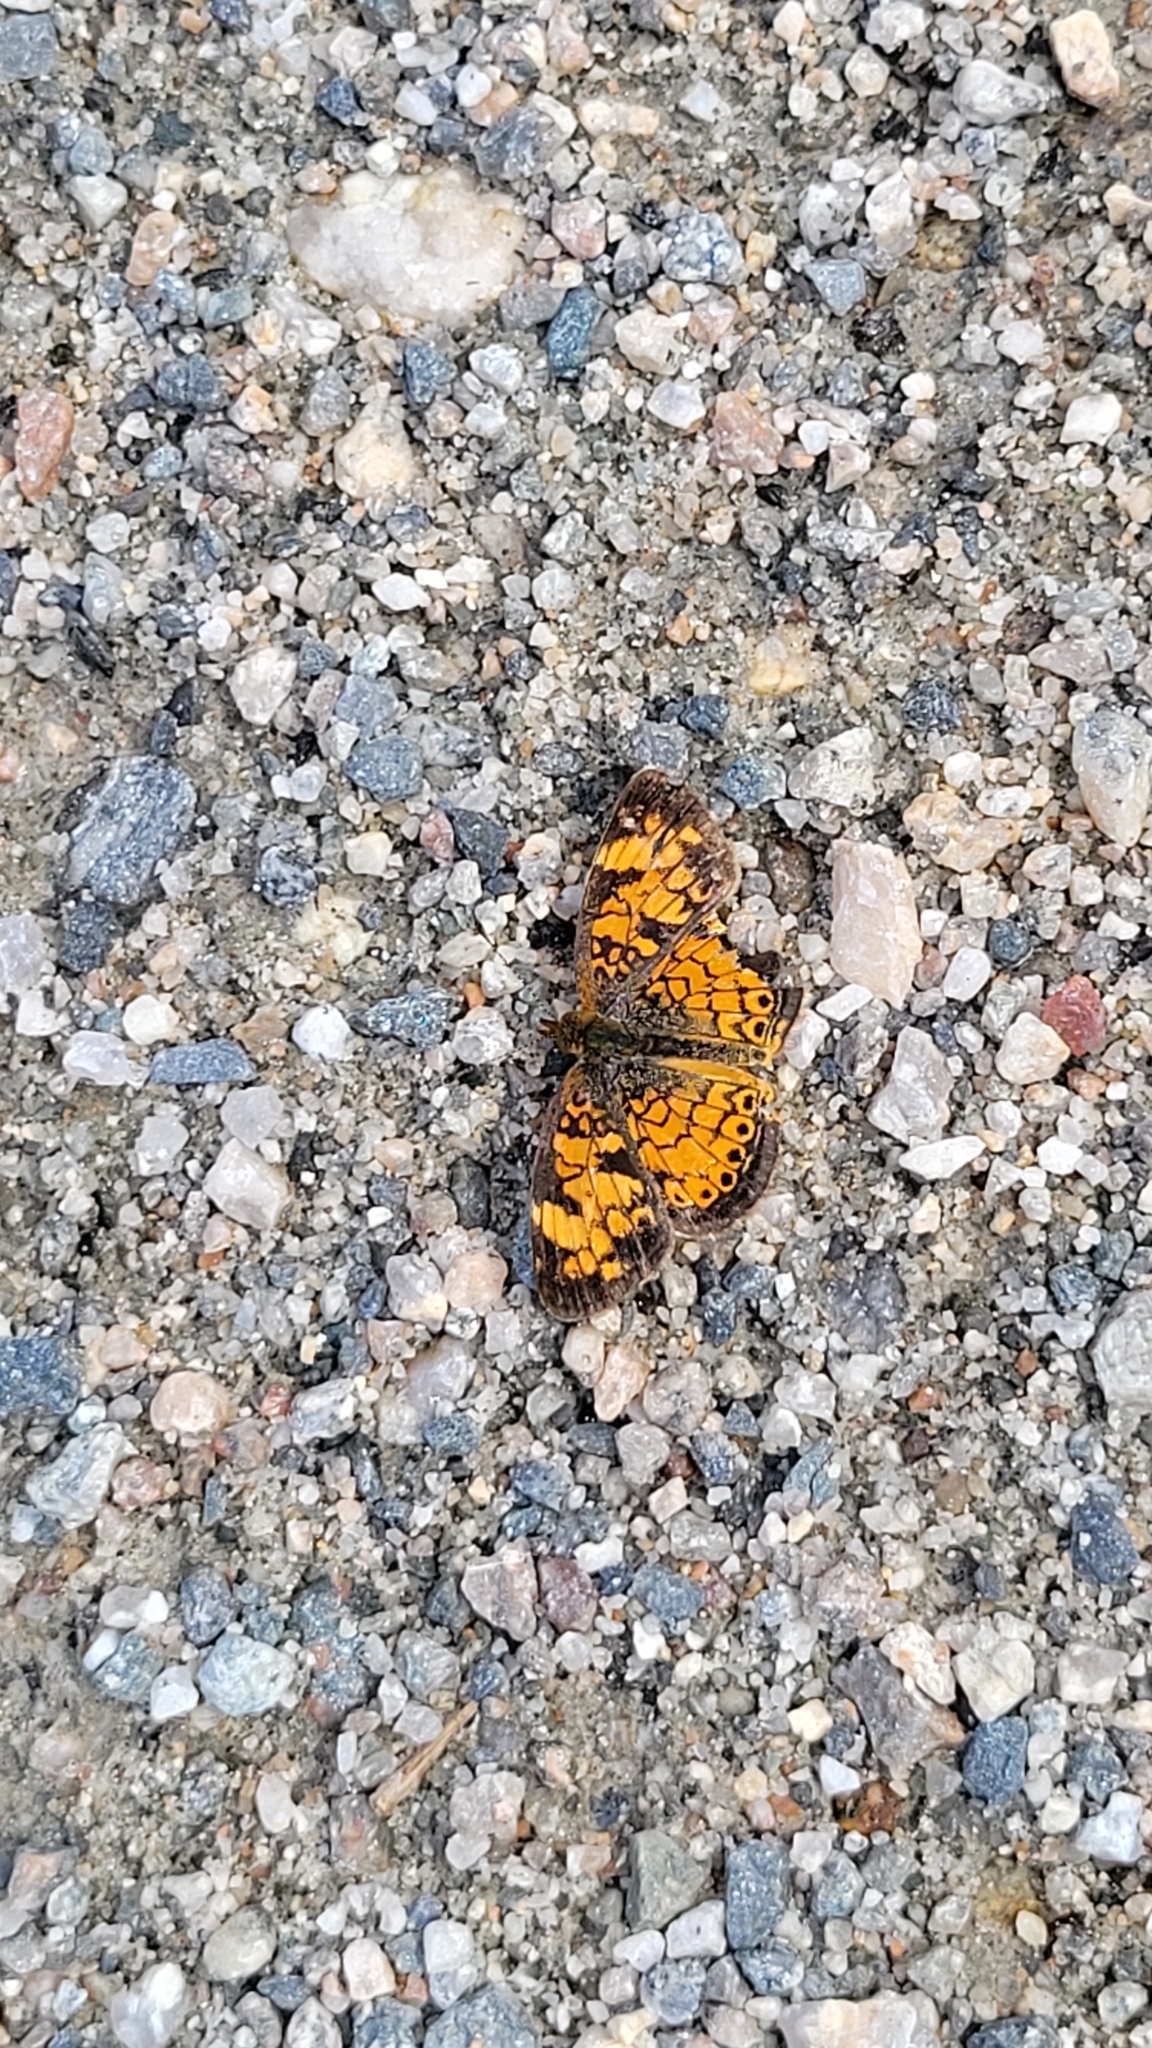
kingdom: Animalia
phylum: Arthropoda
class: Insecta
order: Lepidoptera
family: Nymphalidae
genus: Phyciodes
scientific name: Phyciodes tharos
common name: Pearl crescent
